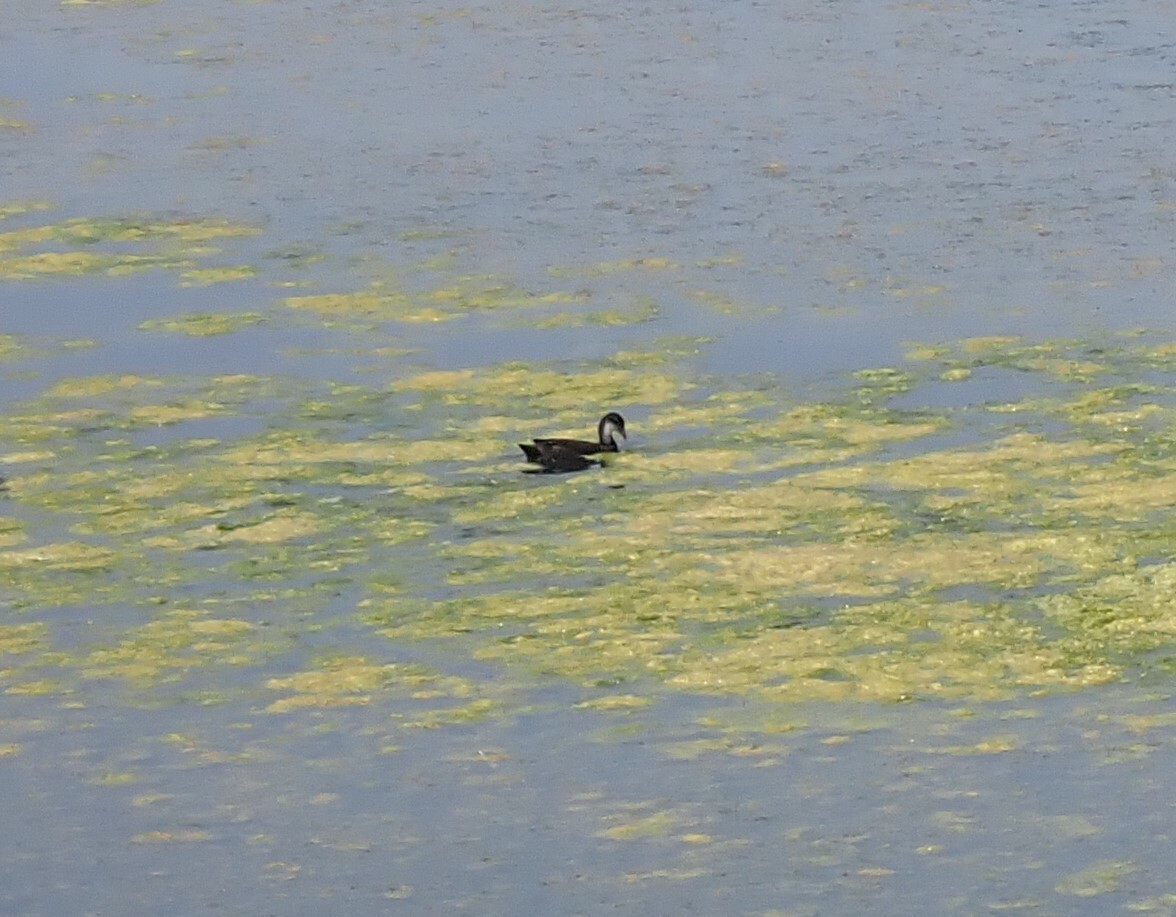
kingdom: Animalia
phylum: Chordata
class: Aves
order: Gruiformes
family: Rallidae
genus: Fulica
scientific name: Fulica atra
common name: Eurasian coot
